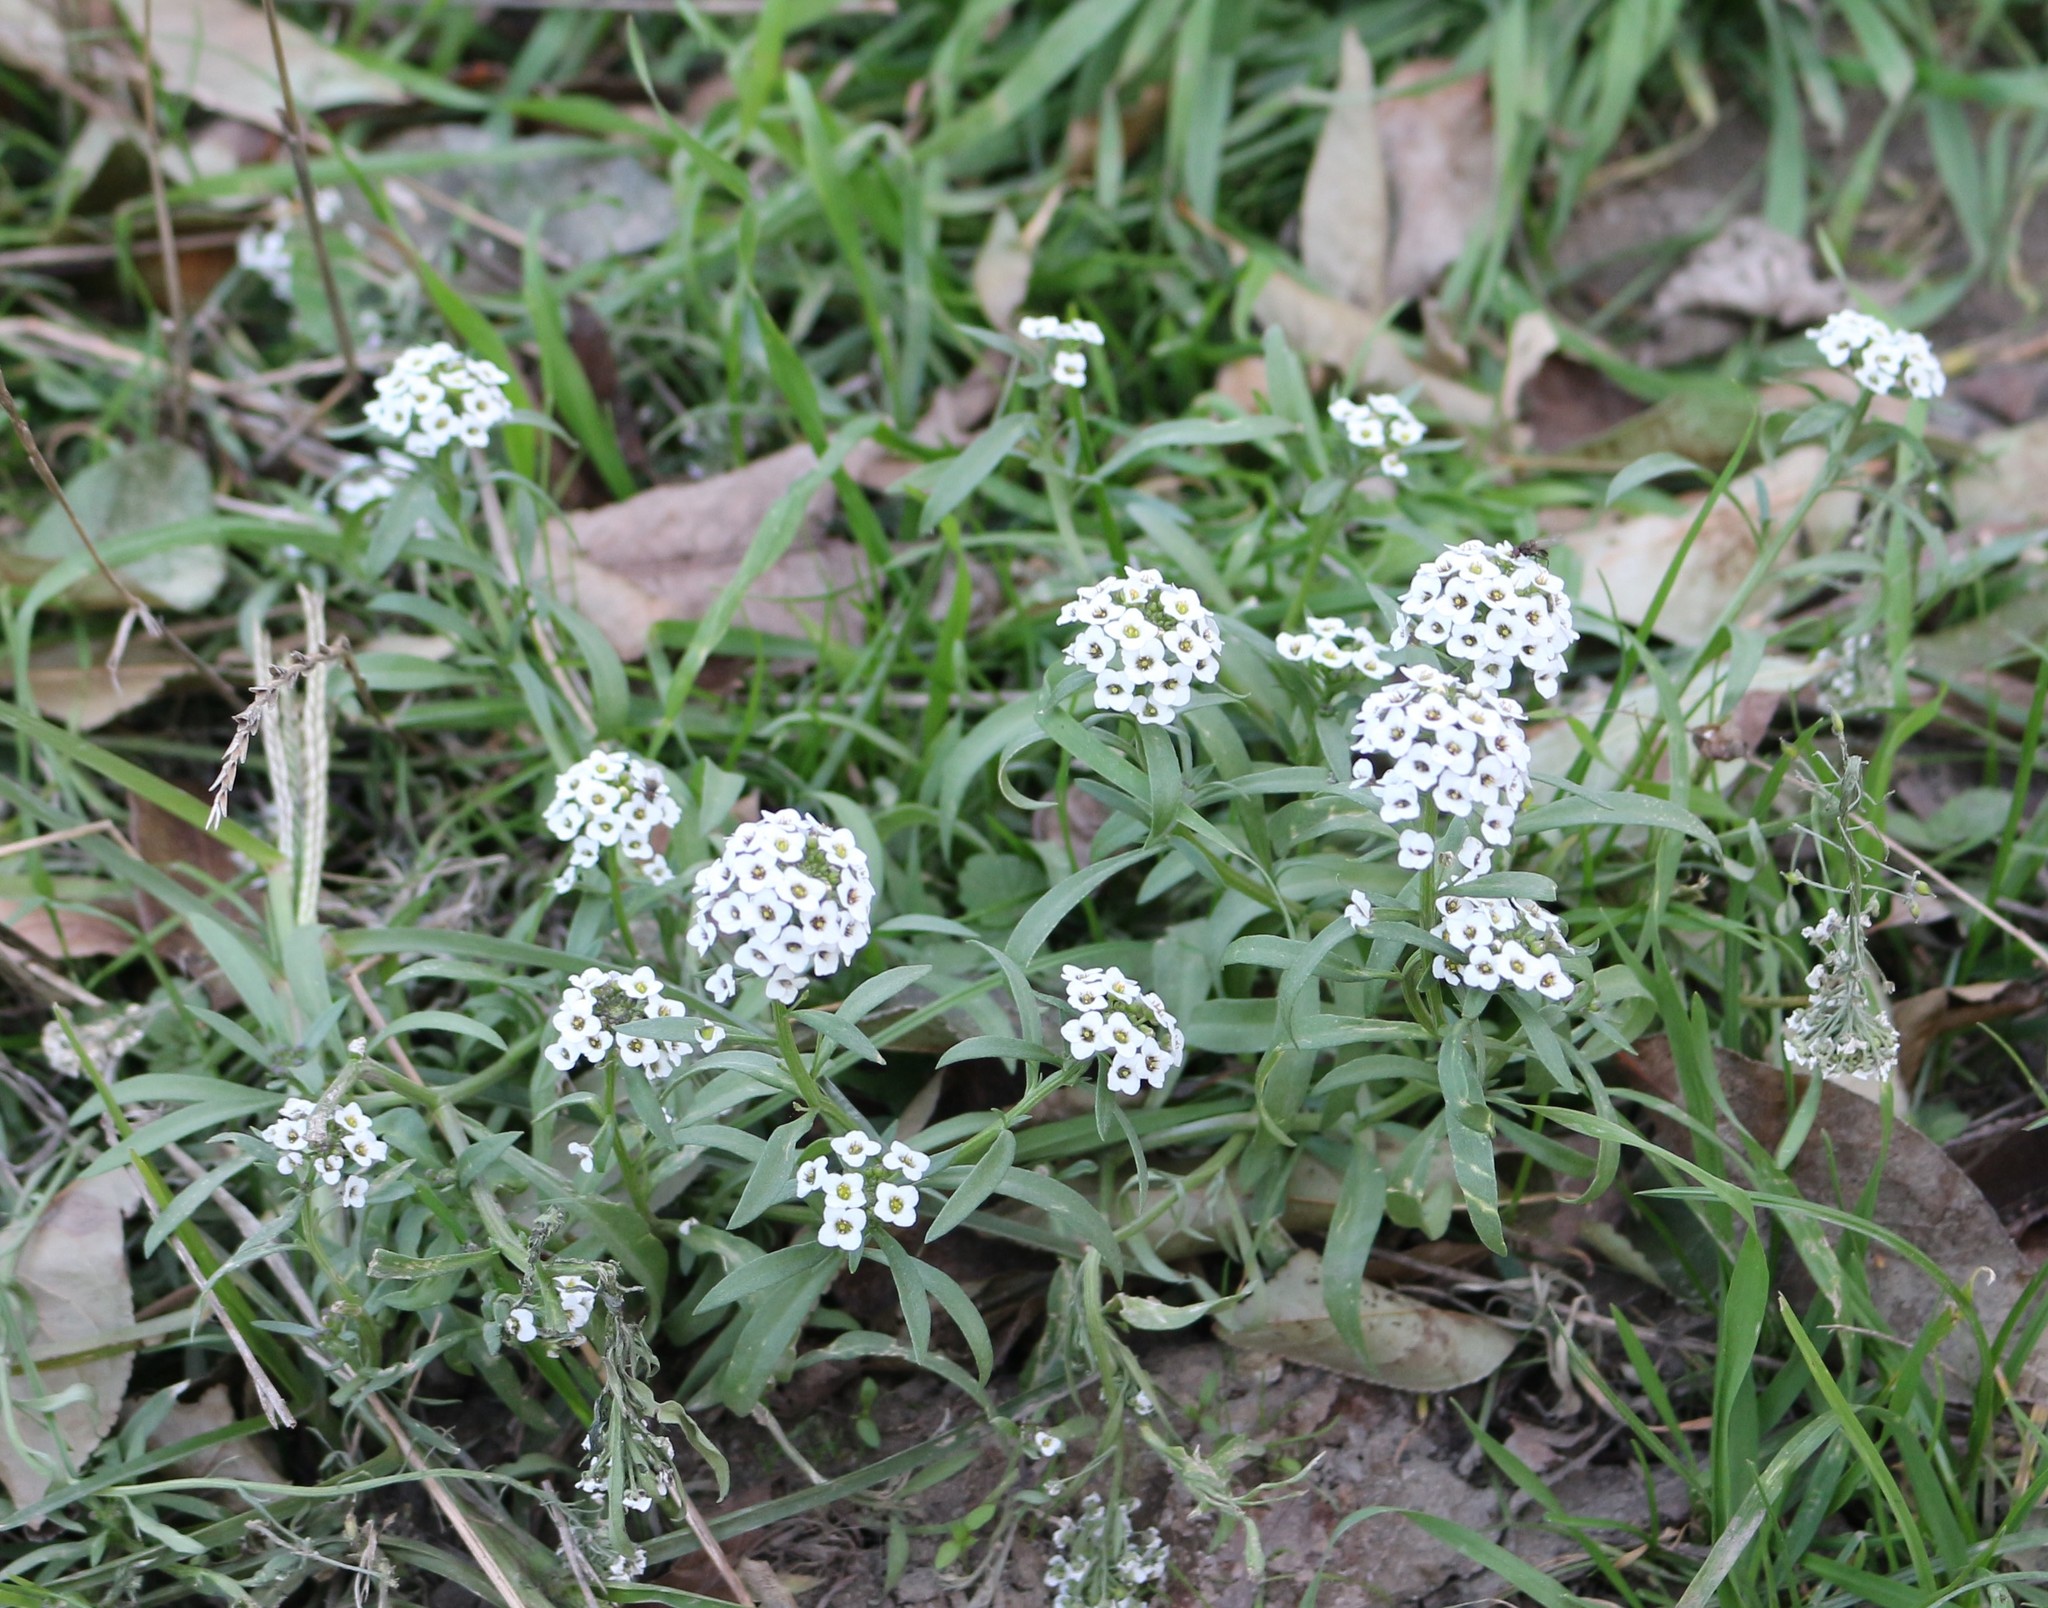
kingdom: Plantae
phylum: Tracheophyta
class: Magnoliopsida
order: Brassicales
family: Brassicaceae
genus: Lobularia
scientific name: Lobularia maritima
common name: Sweet alison
